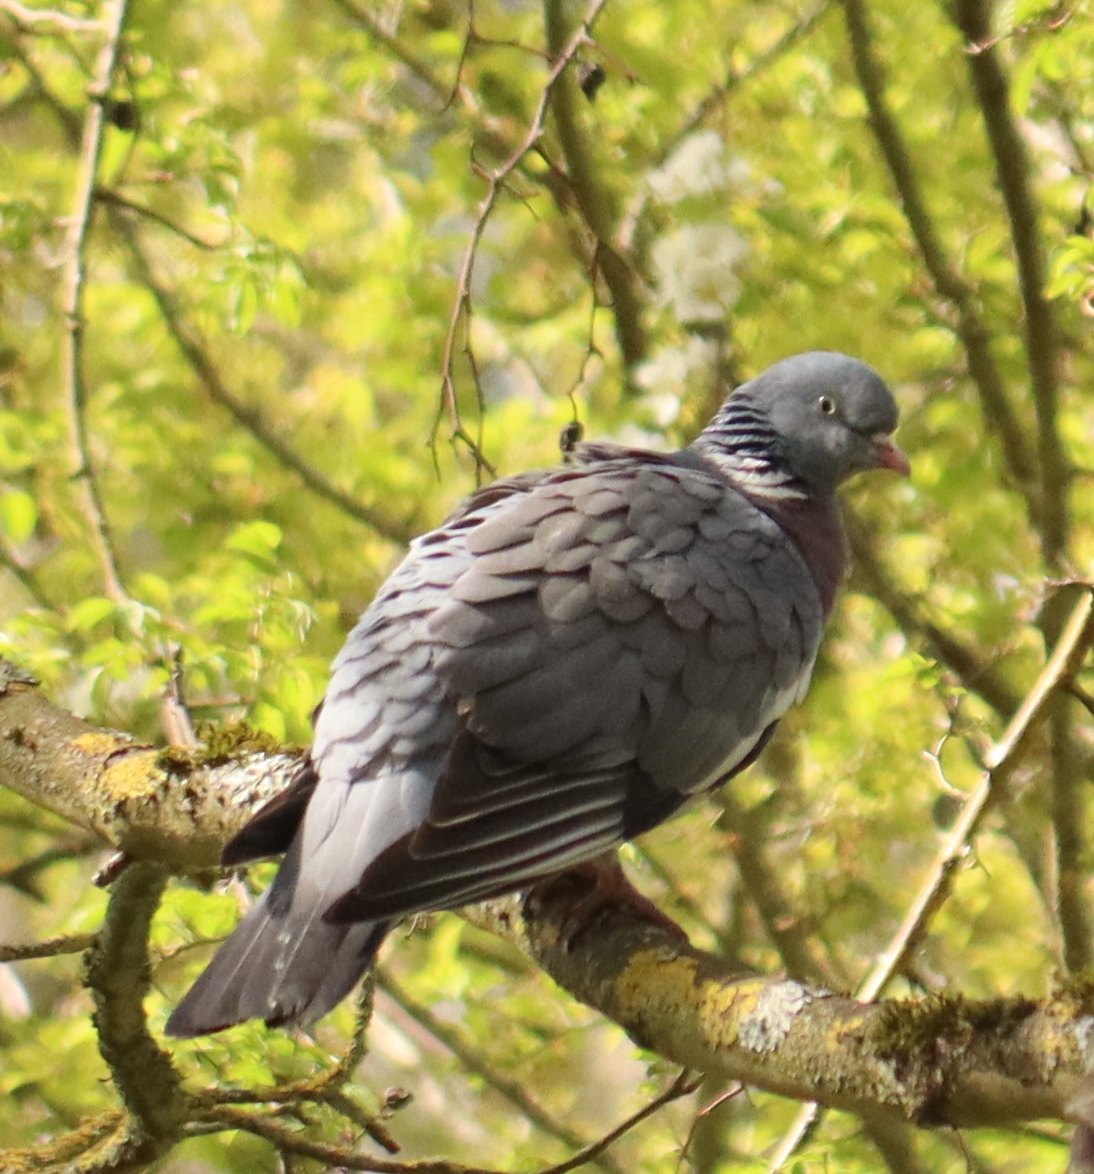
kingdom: Animalia
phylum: Chordata
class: Aves
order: Columbiformes
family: Columbidae
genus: Columba
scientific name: Columba palumbus
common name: Common wood pigeon
